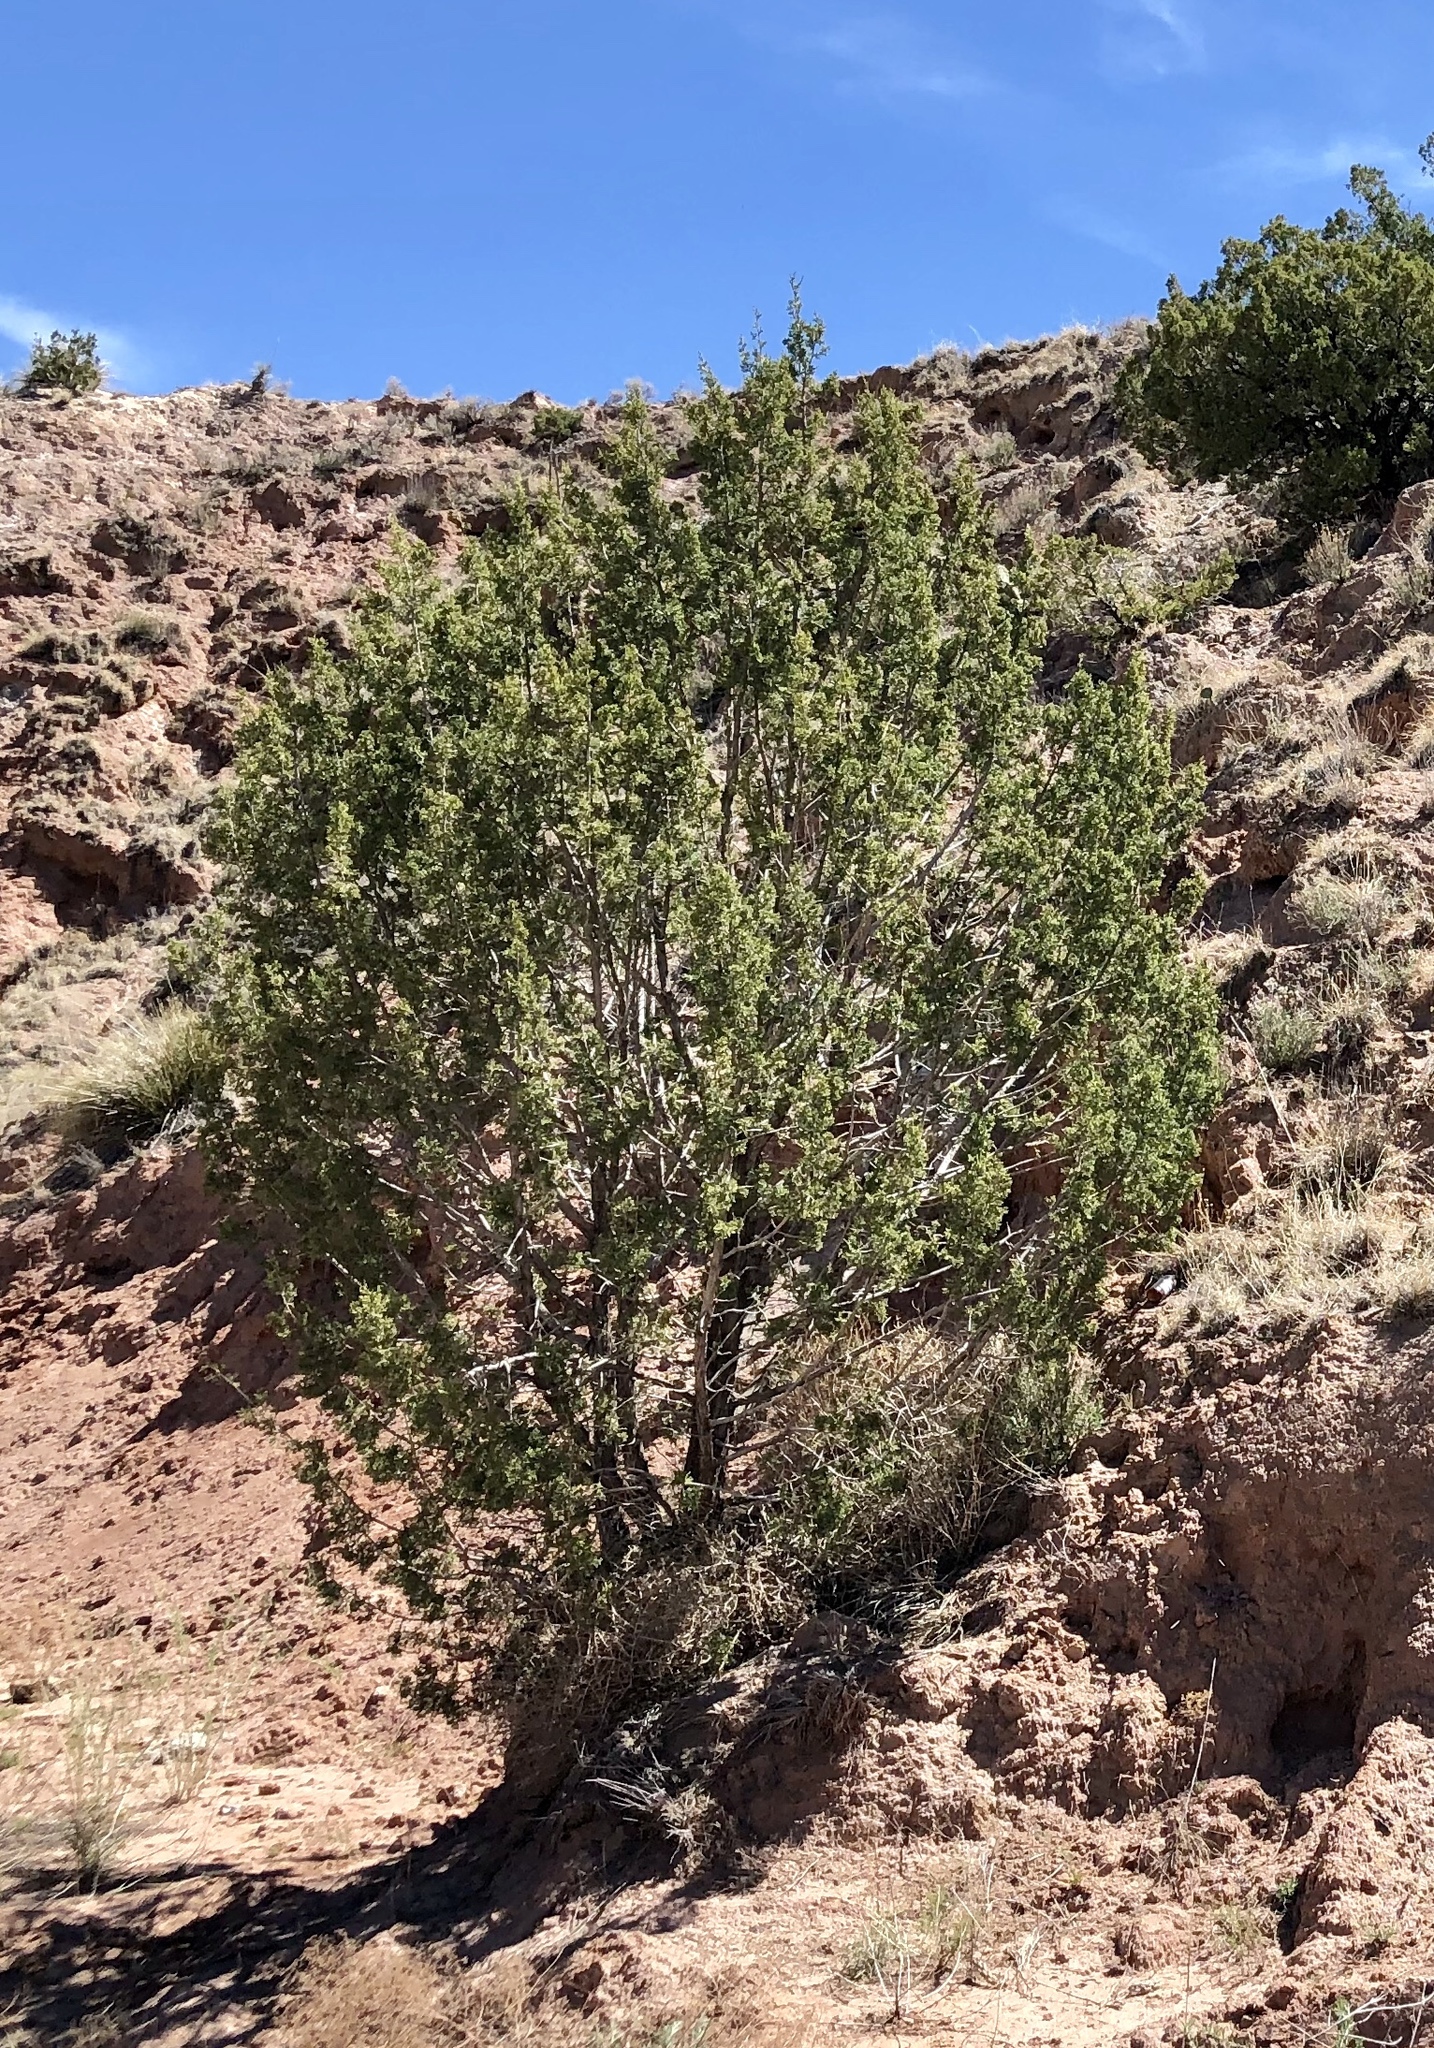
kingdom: Plantae
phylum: Tracheophyta
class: Pinopsida
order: Pinales
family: Cupressaceae
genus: Juniperus
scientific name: Juniperus monosperma
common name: One-seed juniper
